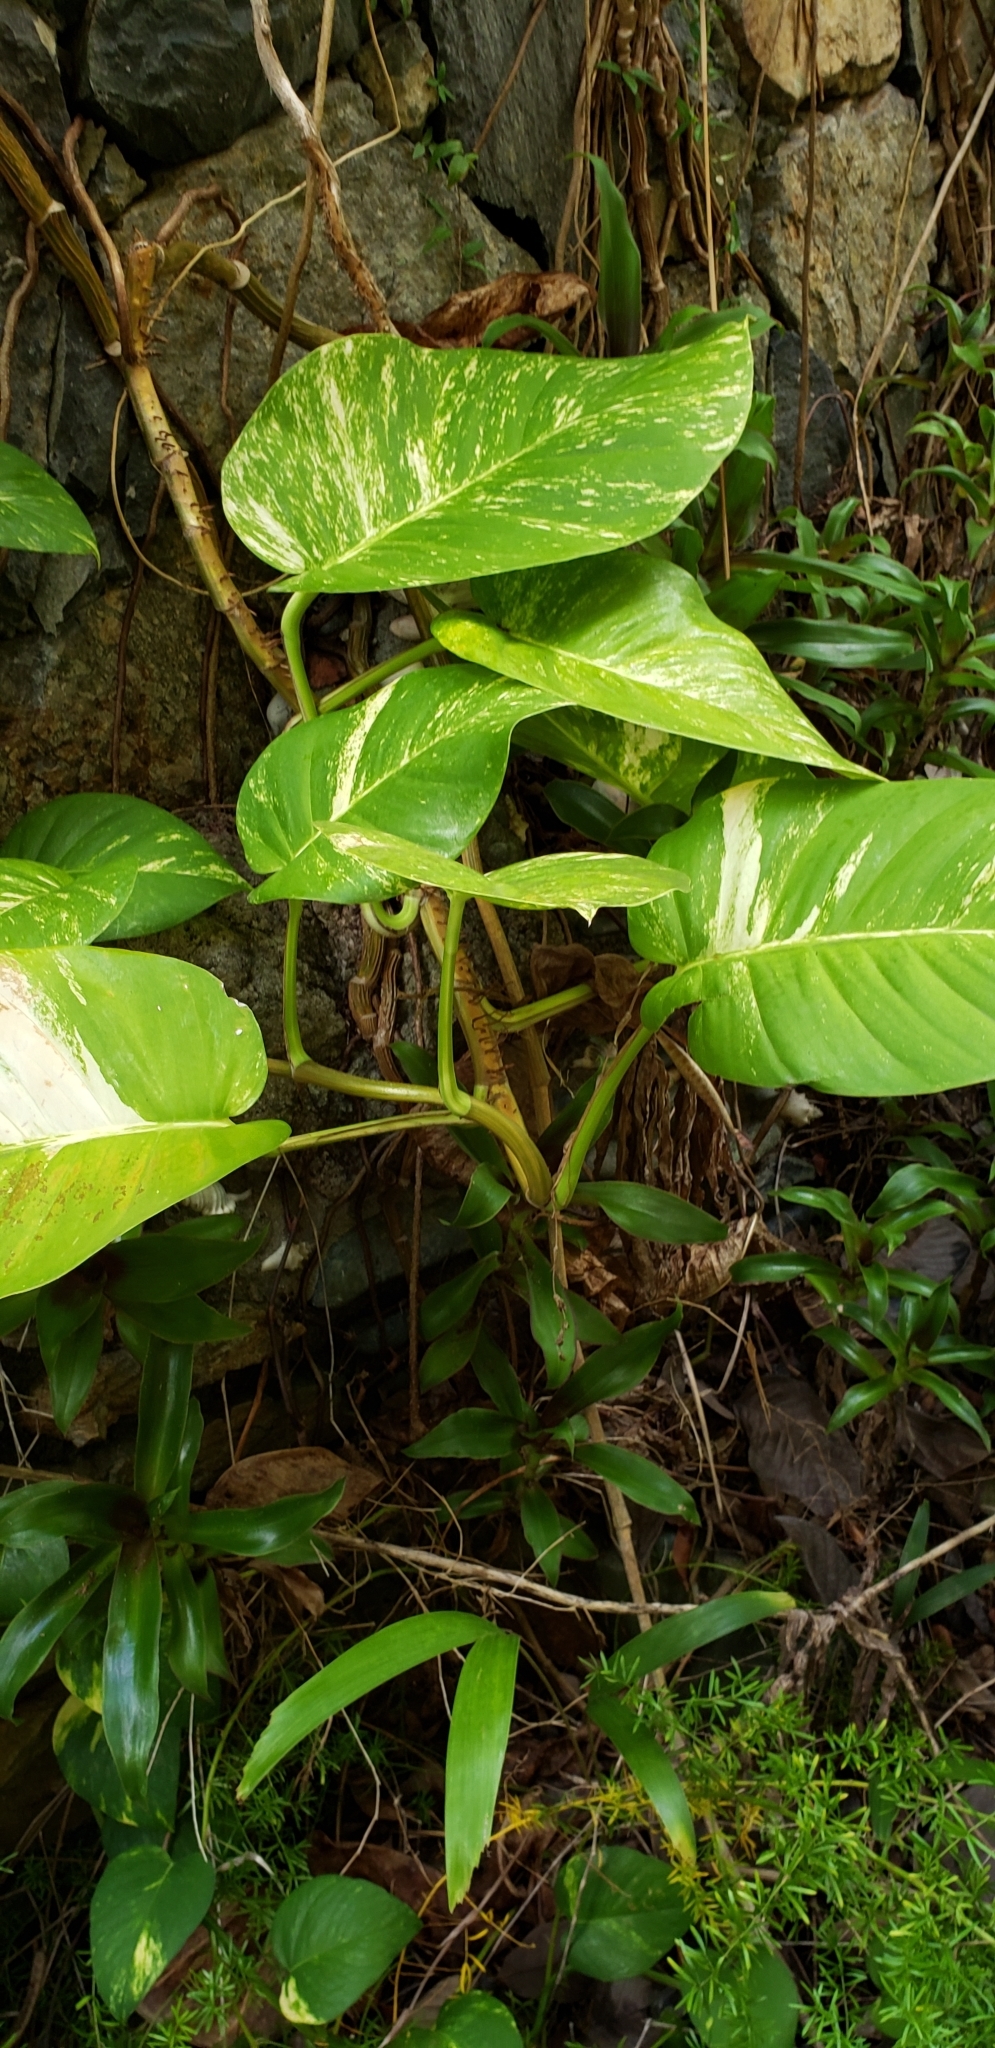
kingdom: Plantae
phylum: Tracheophyta
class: Liliopsida
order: Alismatales
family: Araceae
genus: Epipremnum
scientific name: Epipremnum aureum
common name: Golden hunter's-robe
